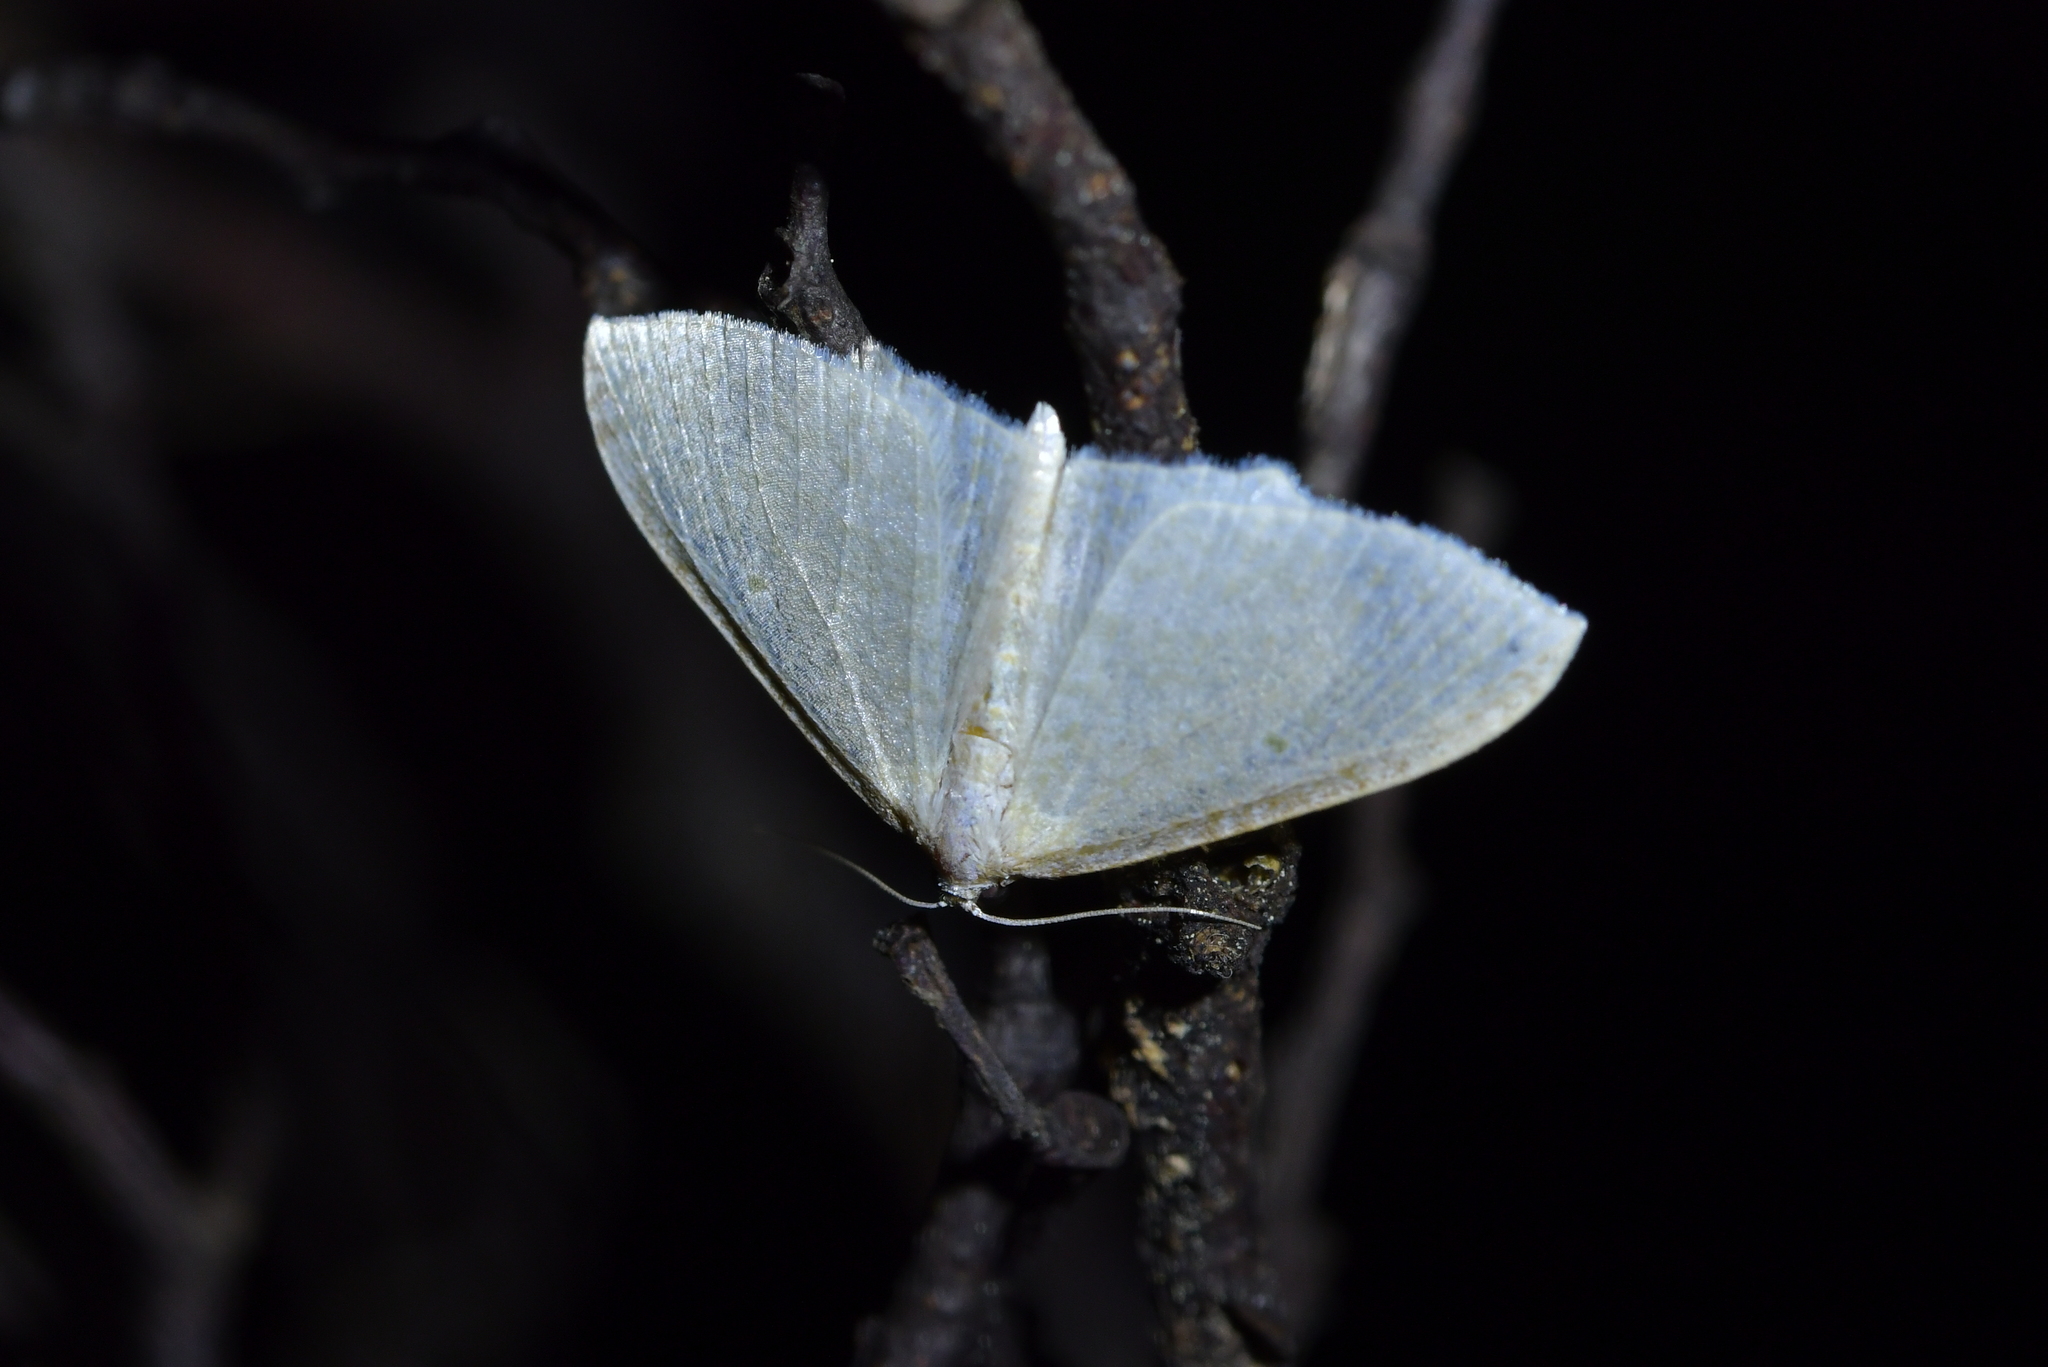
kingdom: Animalia
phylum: Arthropoda
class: Insecta
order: Lepidoptera
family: Geometridae
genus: Poecilasthena
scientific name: Poecilasthena pulchraria
